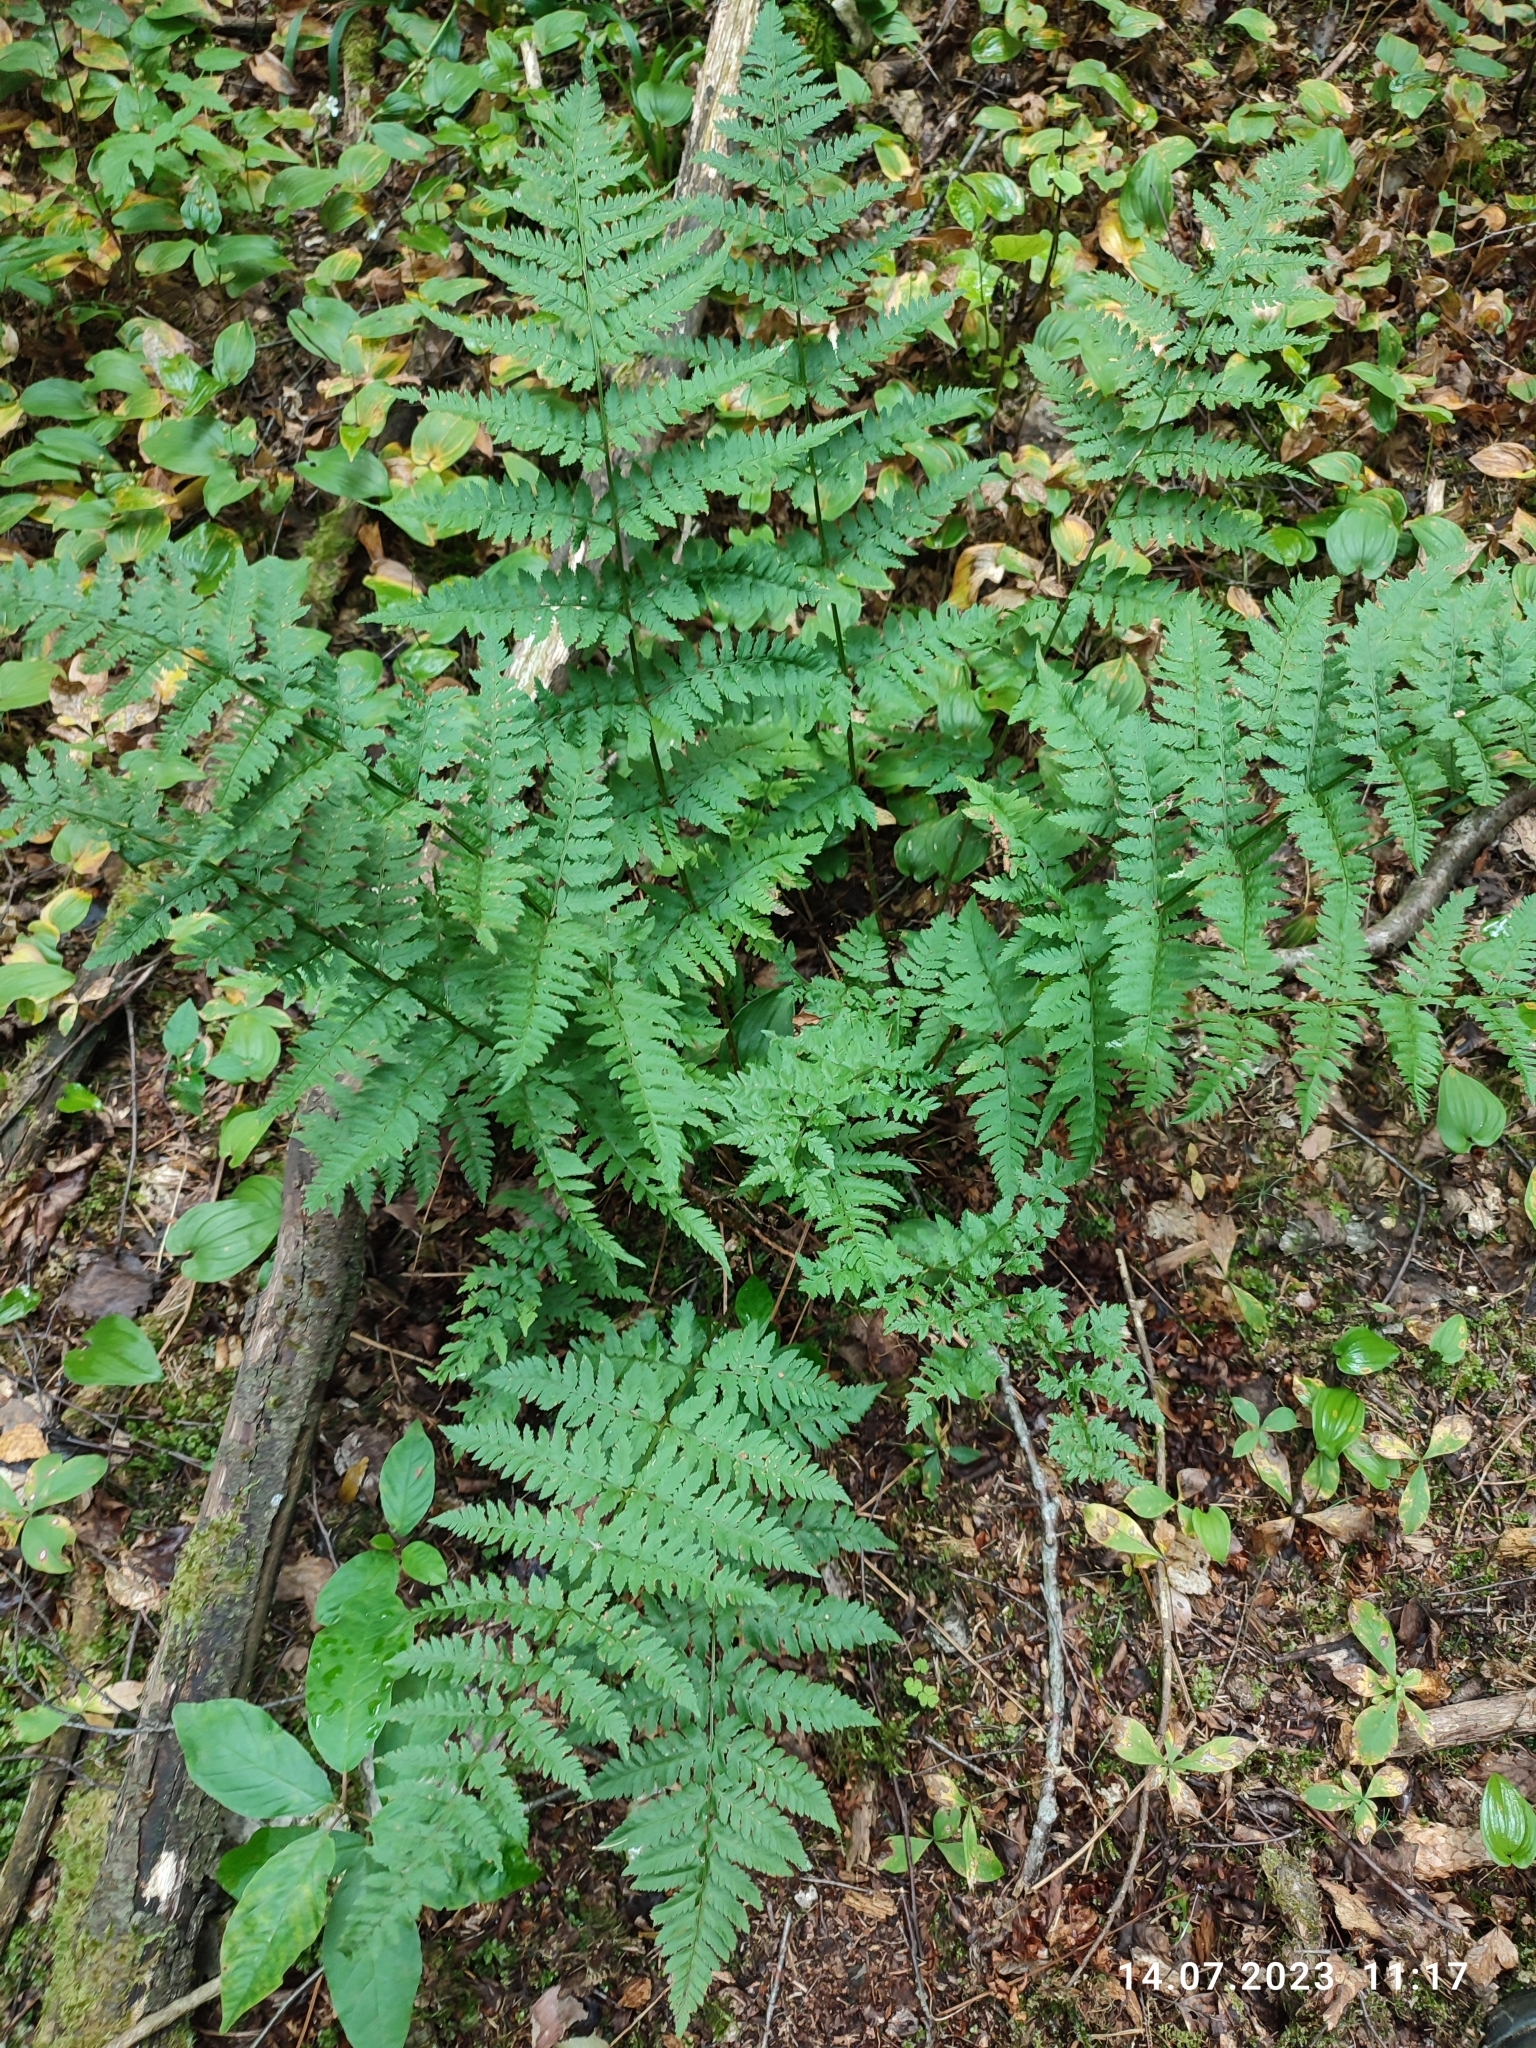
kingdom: Plantae
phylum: Tracheophyta
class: Polypodiopsida
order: Polypodiales
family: Dryopteridaceae
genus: Dryopteris
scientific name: Dryopteris carthusiana
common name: Narrow buckler-fern
